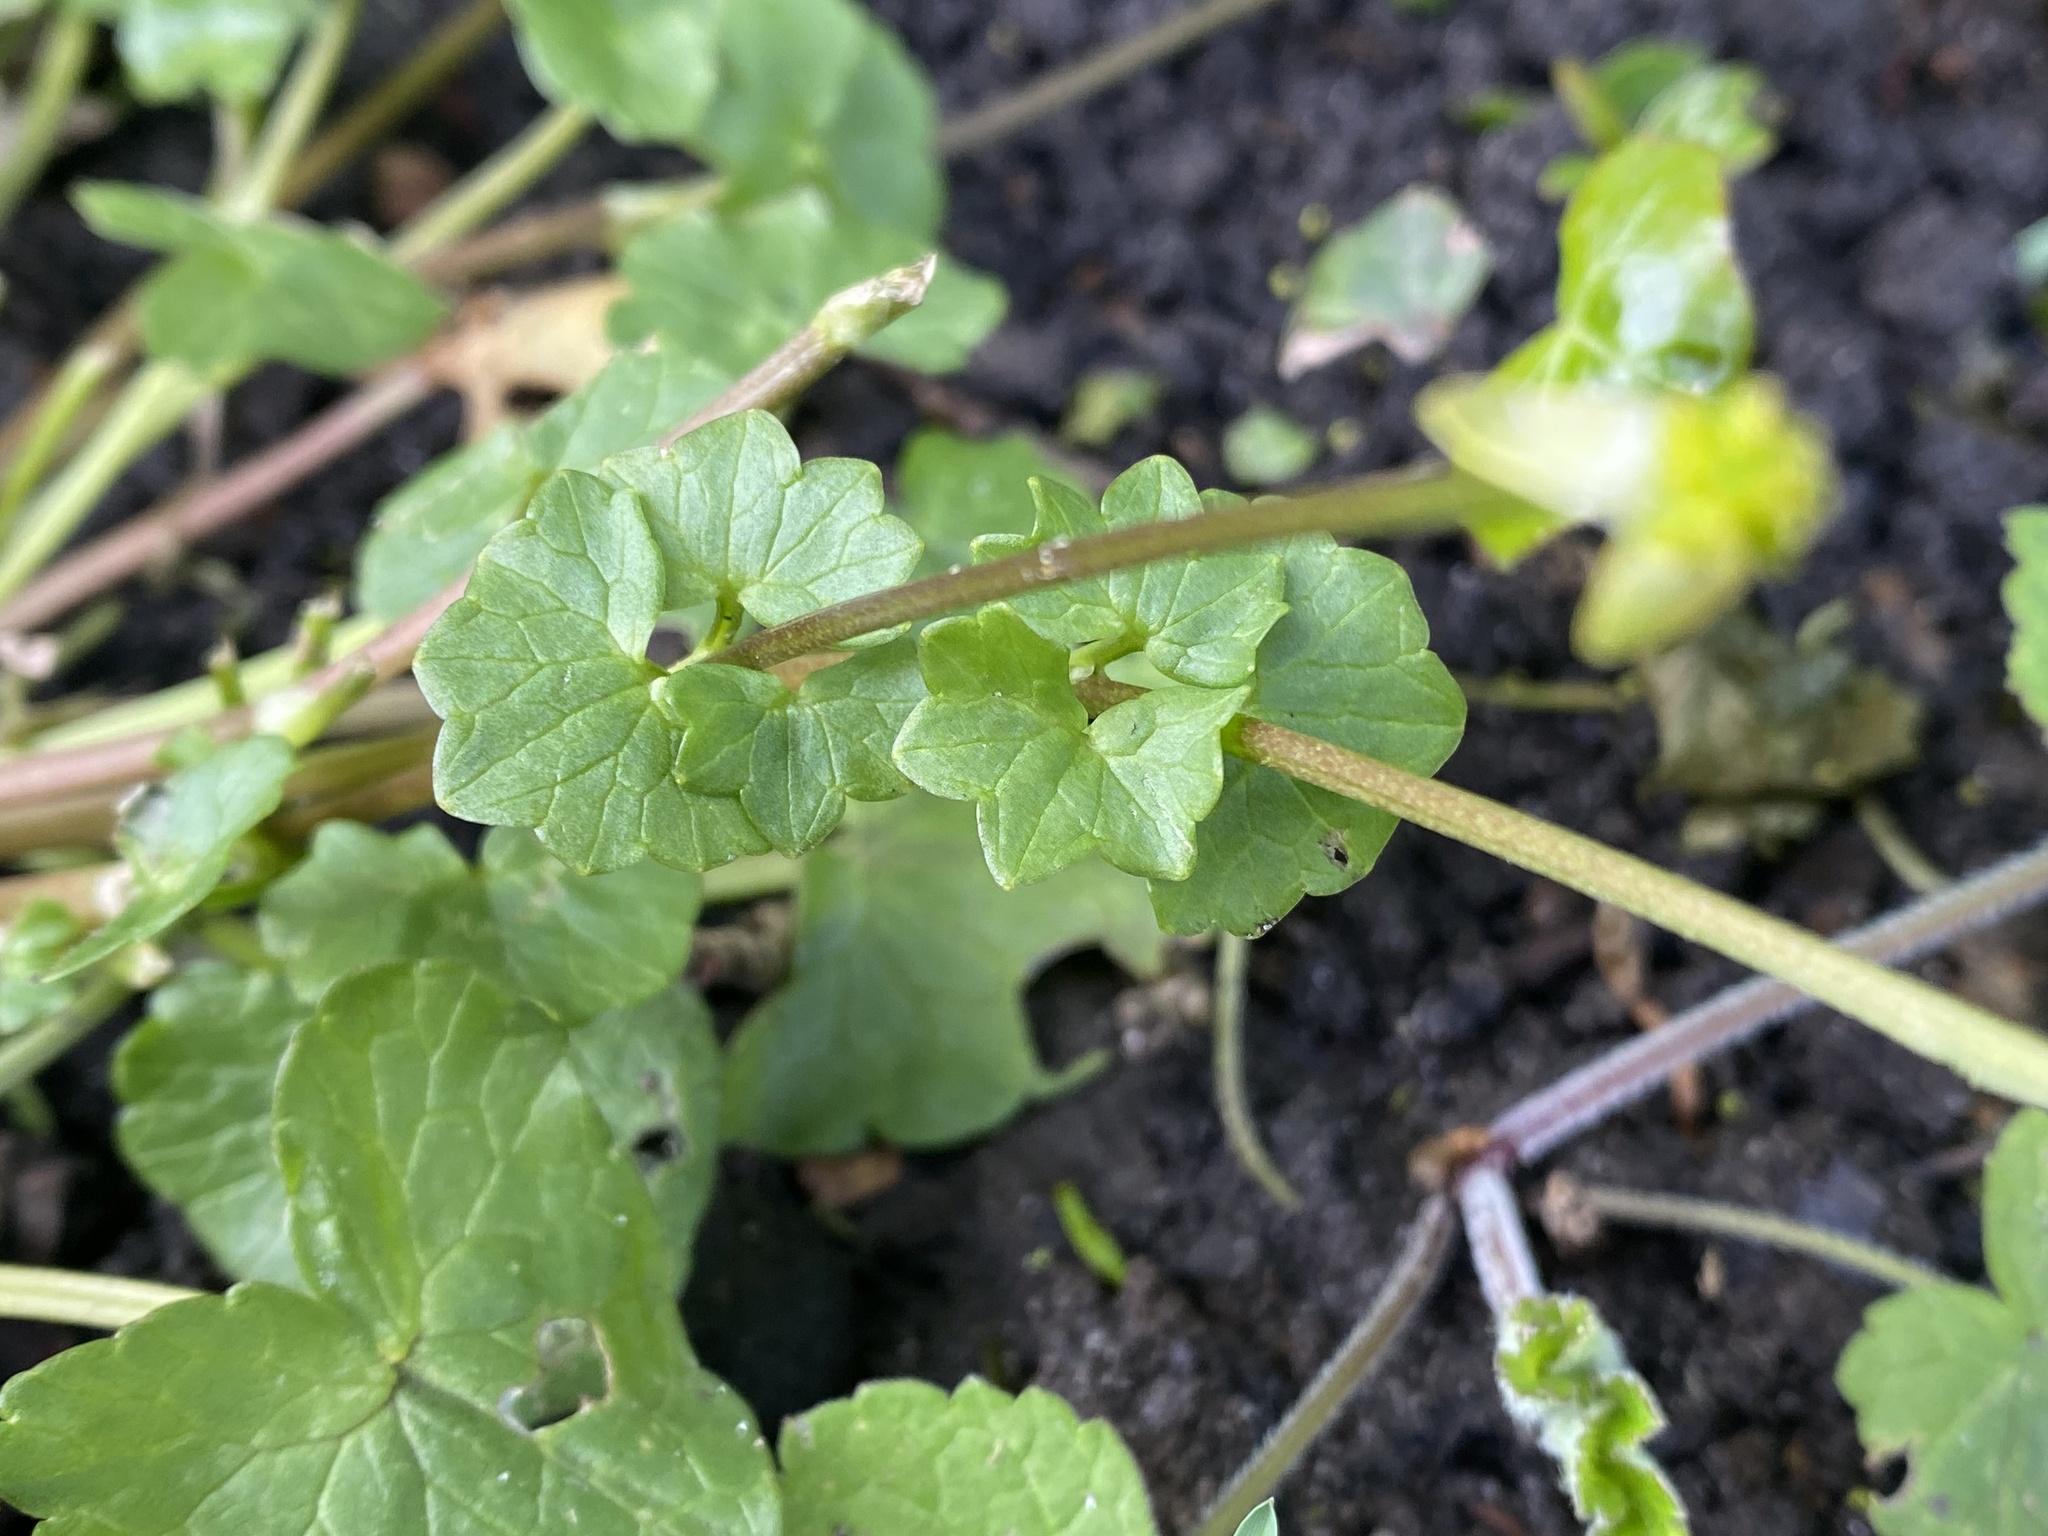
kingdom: Plantae
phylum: Tracheophyta
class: Magnoliopsida
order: Ranunculales
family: Ranunculaceae
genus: Ficaria
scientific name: Ficaria verna
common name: Lesser celandine
